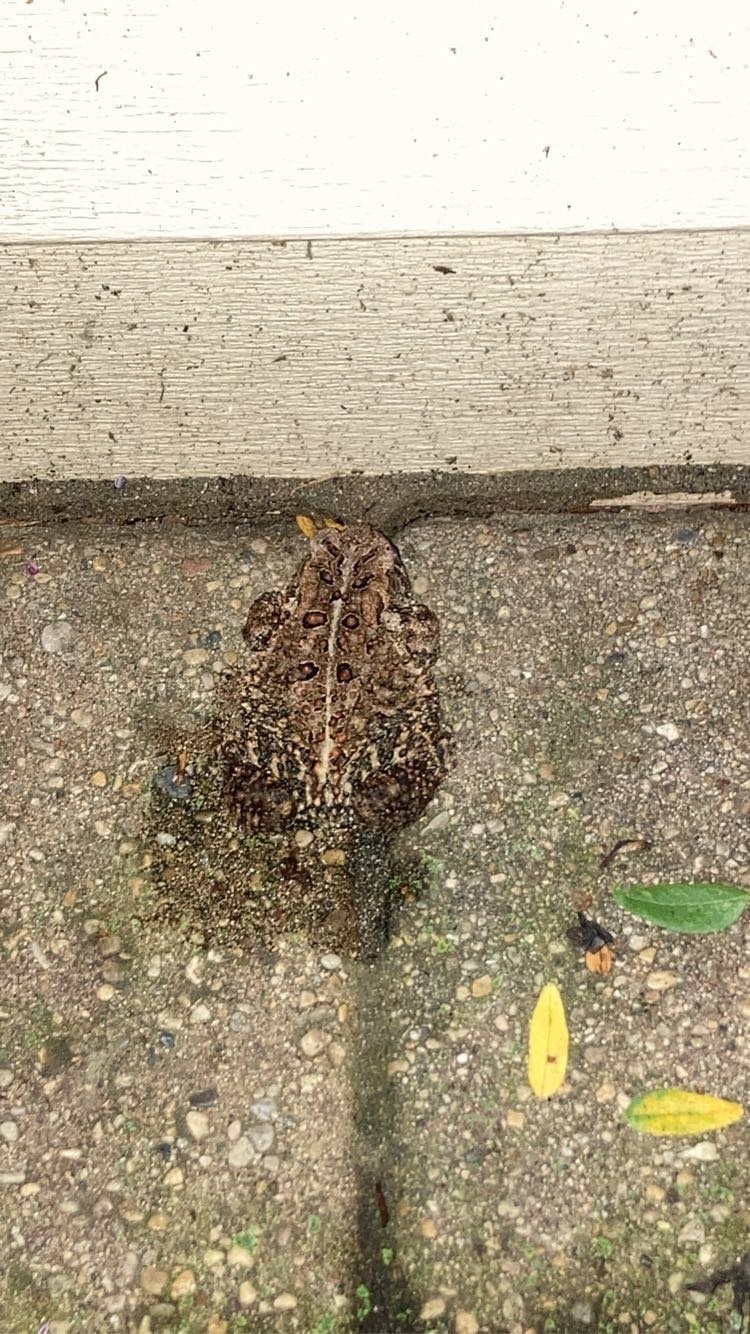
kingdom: Animalia
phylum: Chordata
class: Amphibia
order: Anura
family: Bufonidae
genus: Anaxyrus
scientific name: Anaxyrus americanus
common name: American toad
